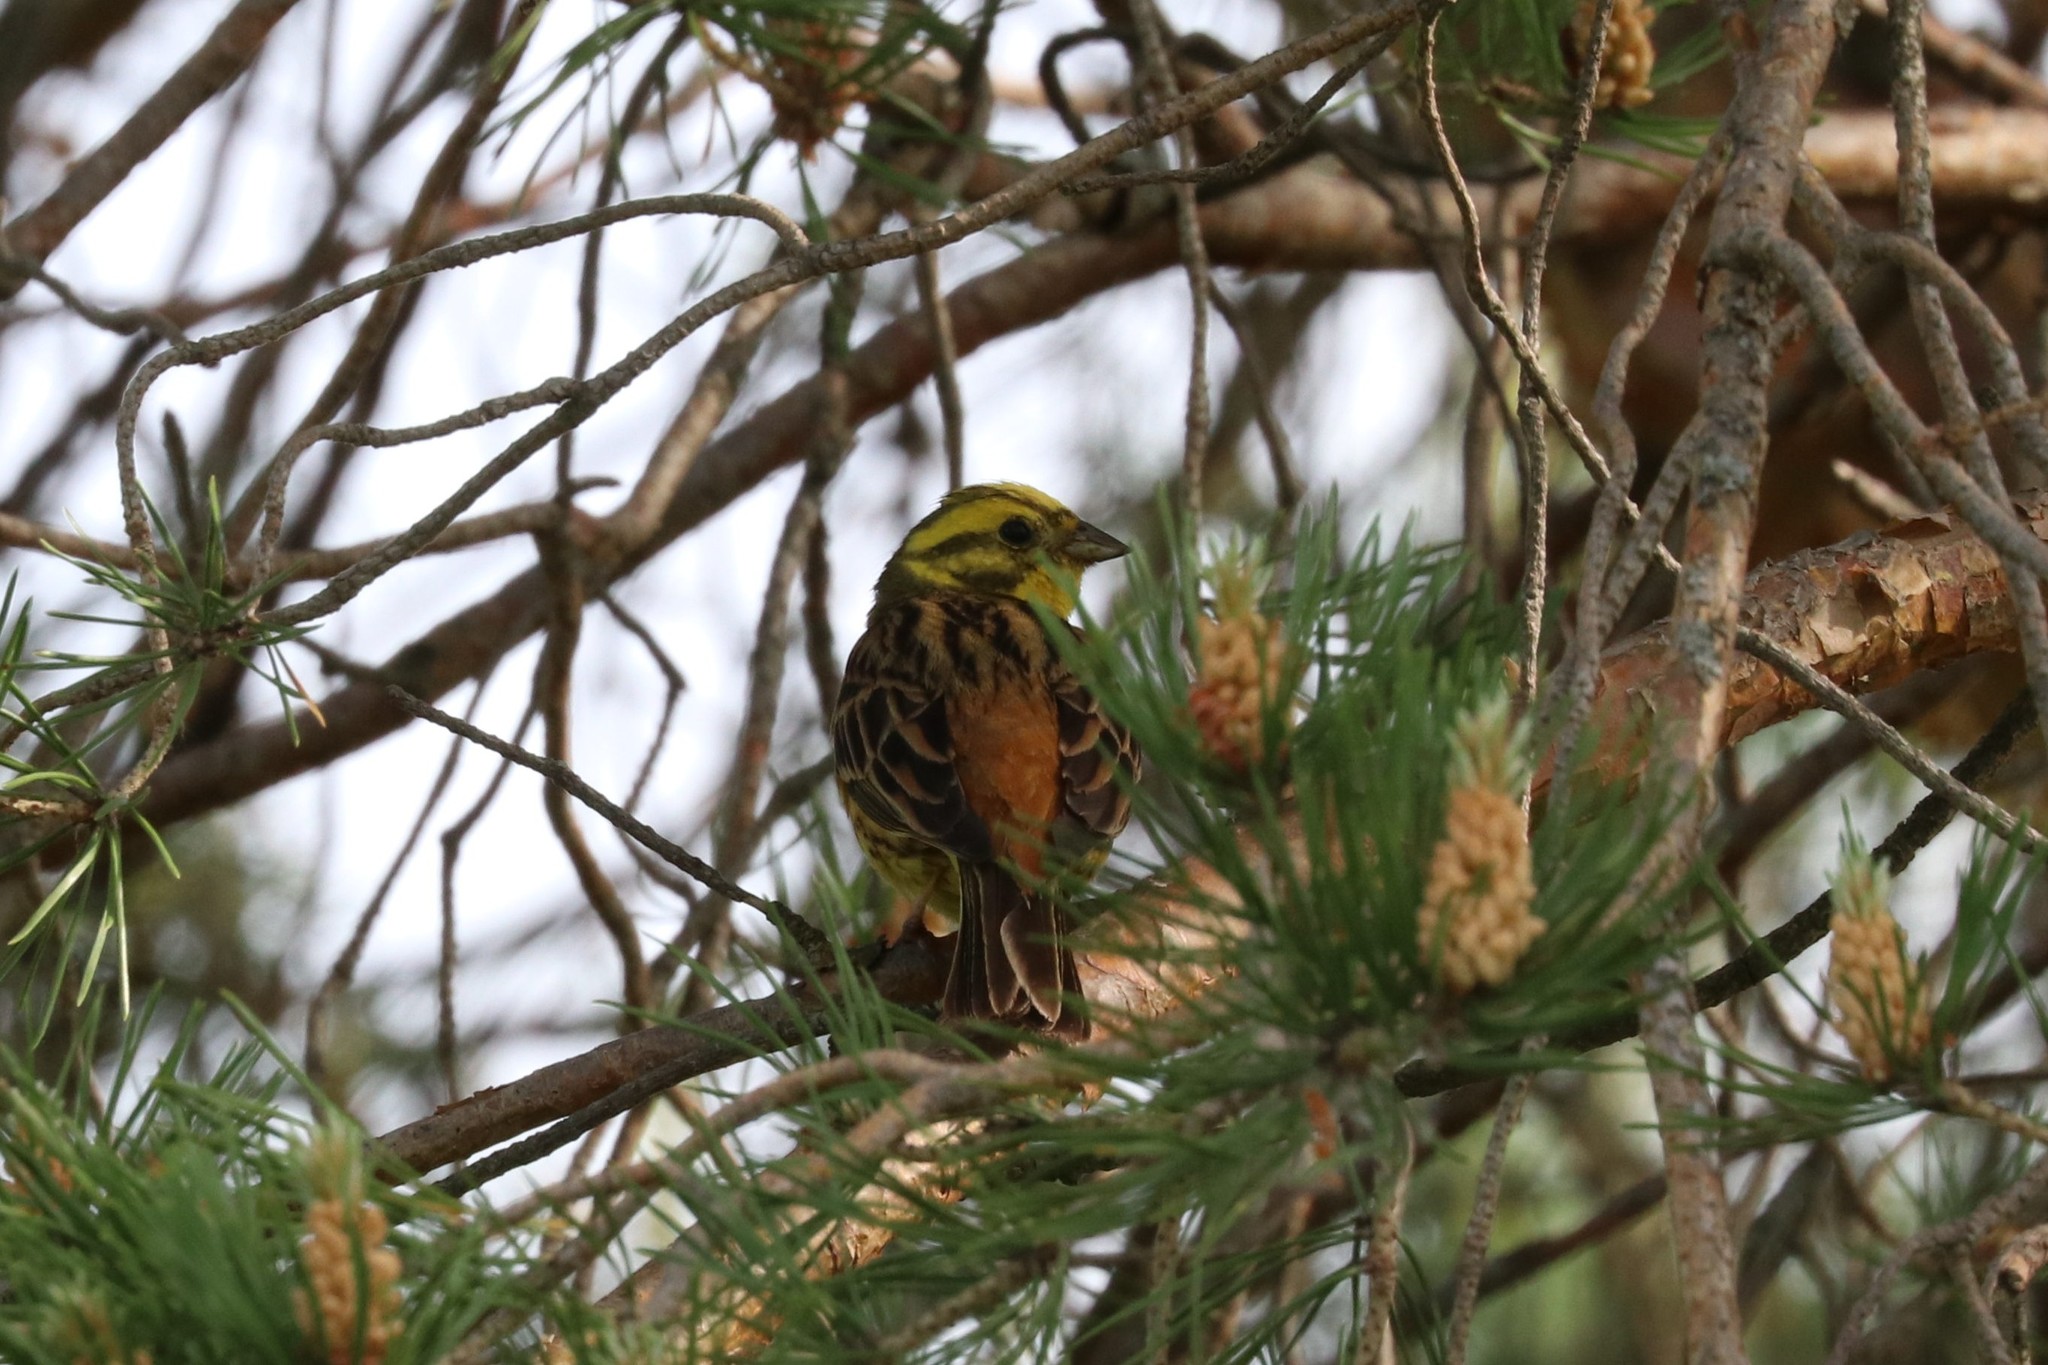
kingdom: Animalia
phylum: Chordata
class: Aves
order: Passeriformes
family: Emberizidae
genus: Emberiza
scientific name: Emberiza citrinella
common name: Yellowhammer
